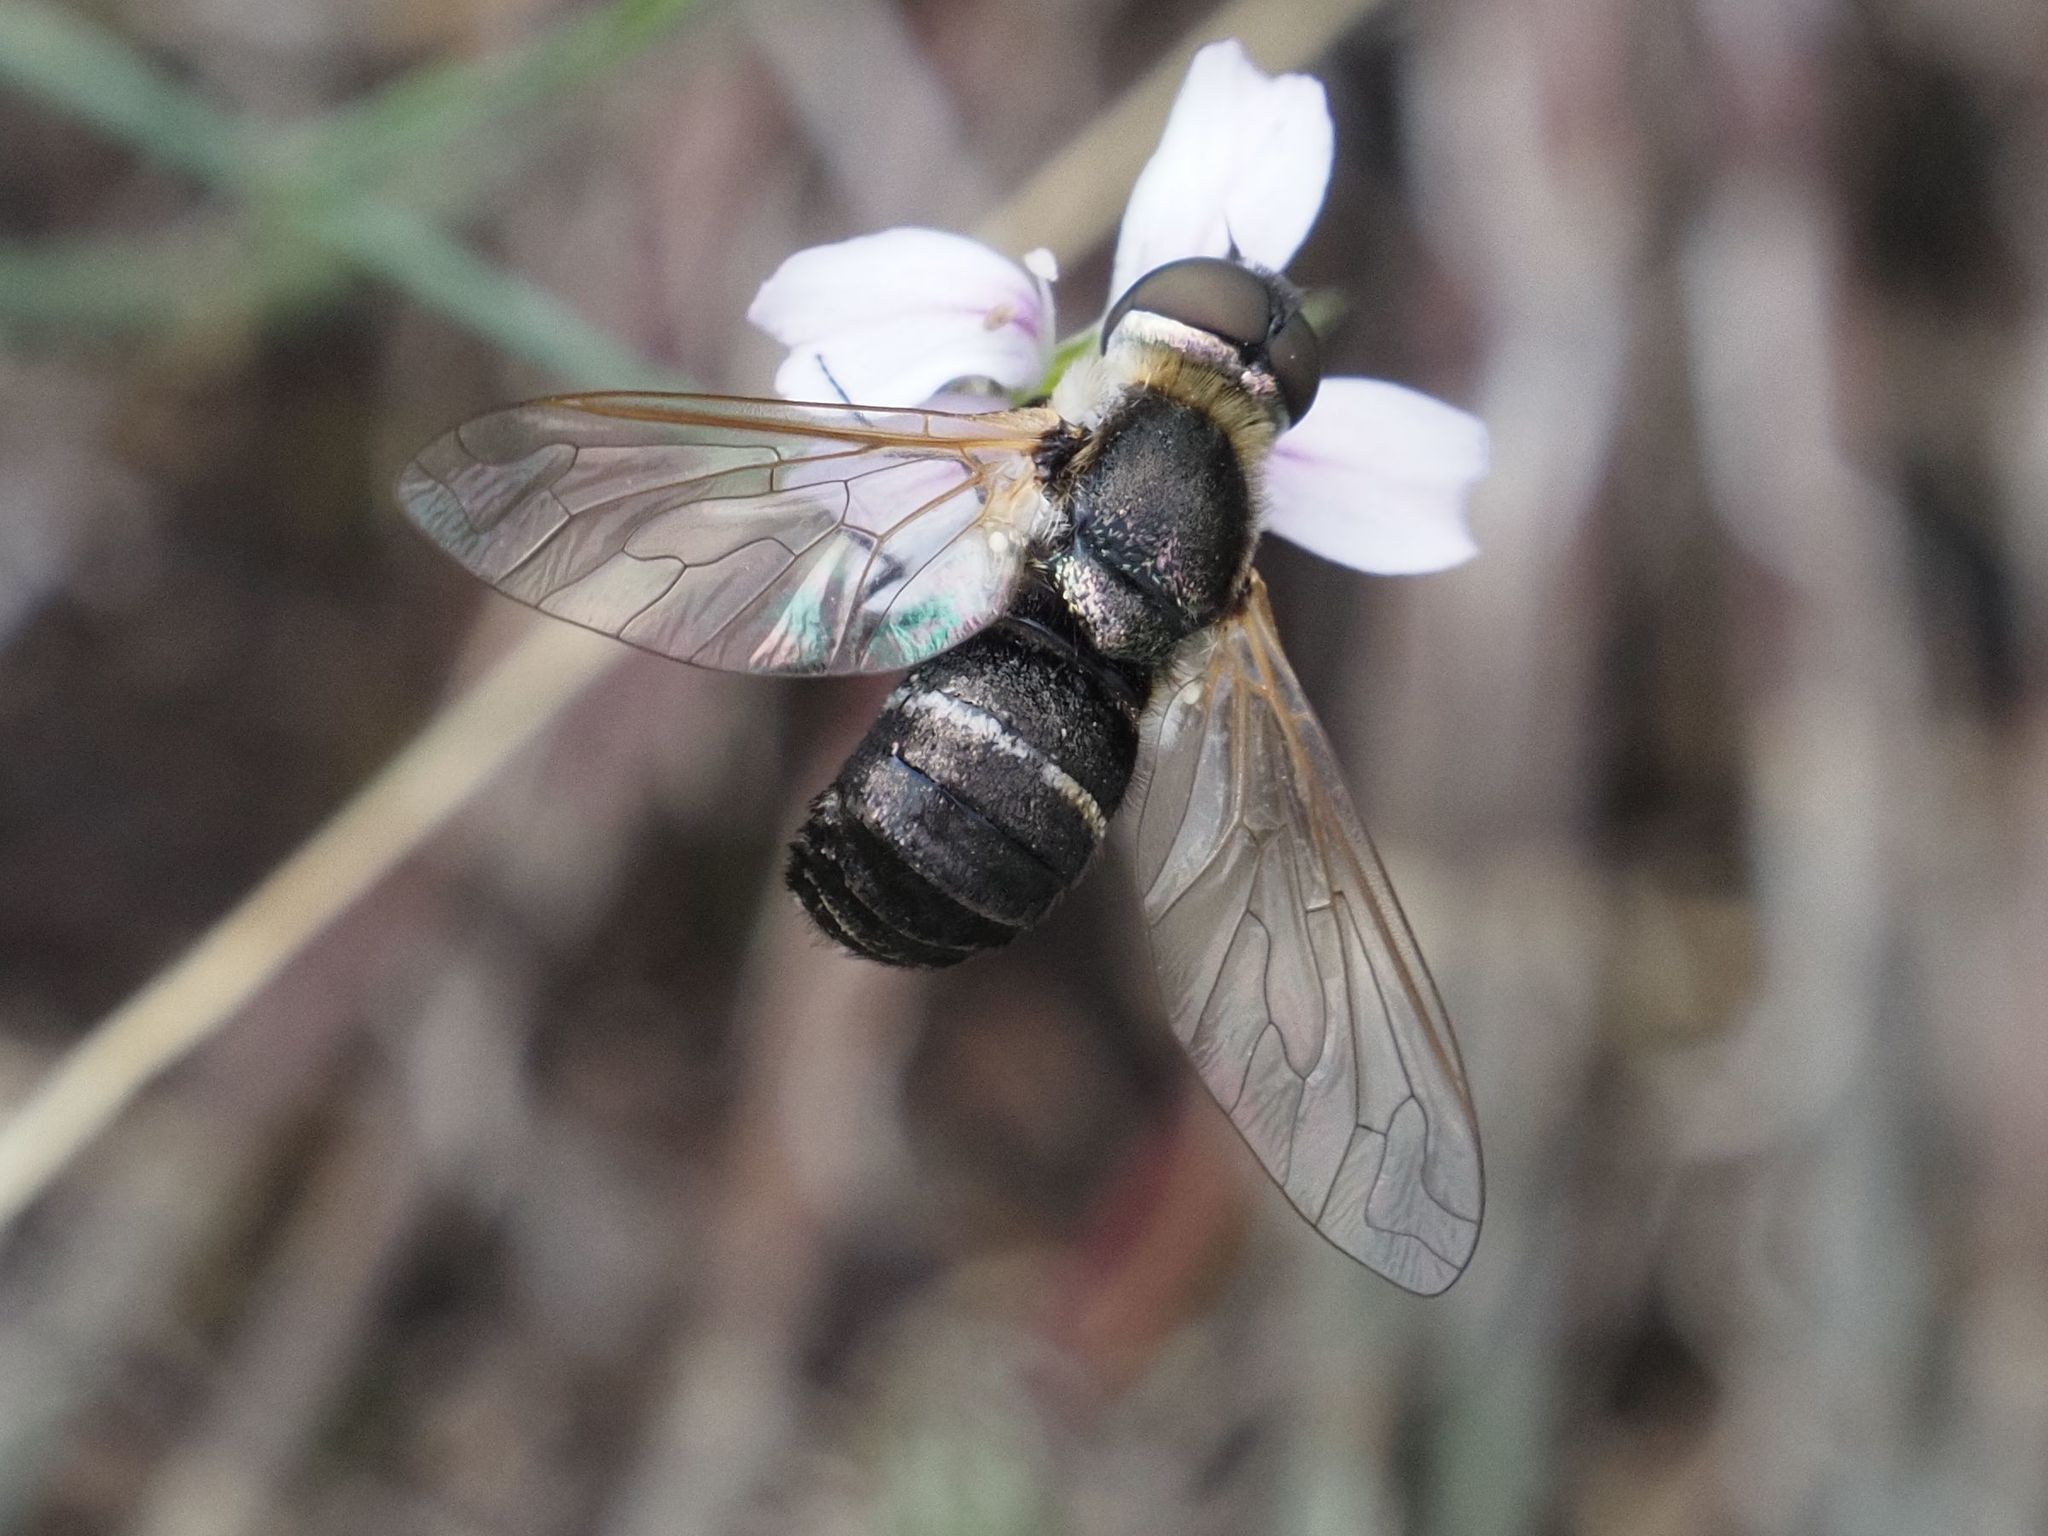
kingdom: Animalia
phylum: Arthropoda
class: Insecta
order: Diptera
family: Bombyliidae
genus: Micomitra
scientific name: Micomitra stupida
